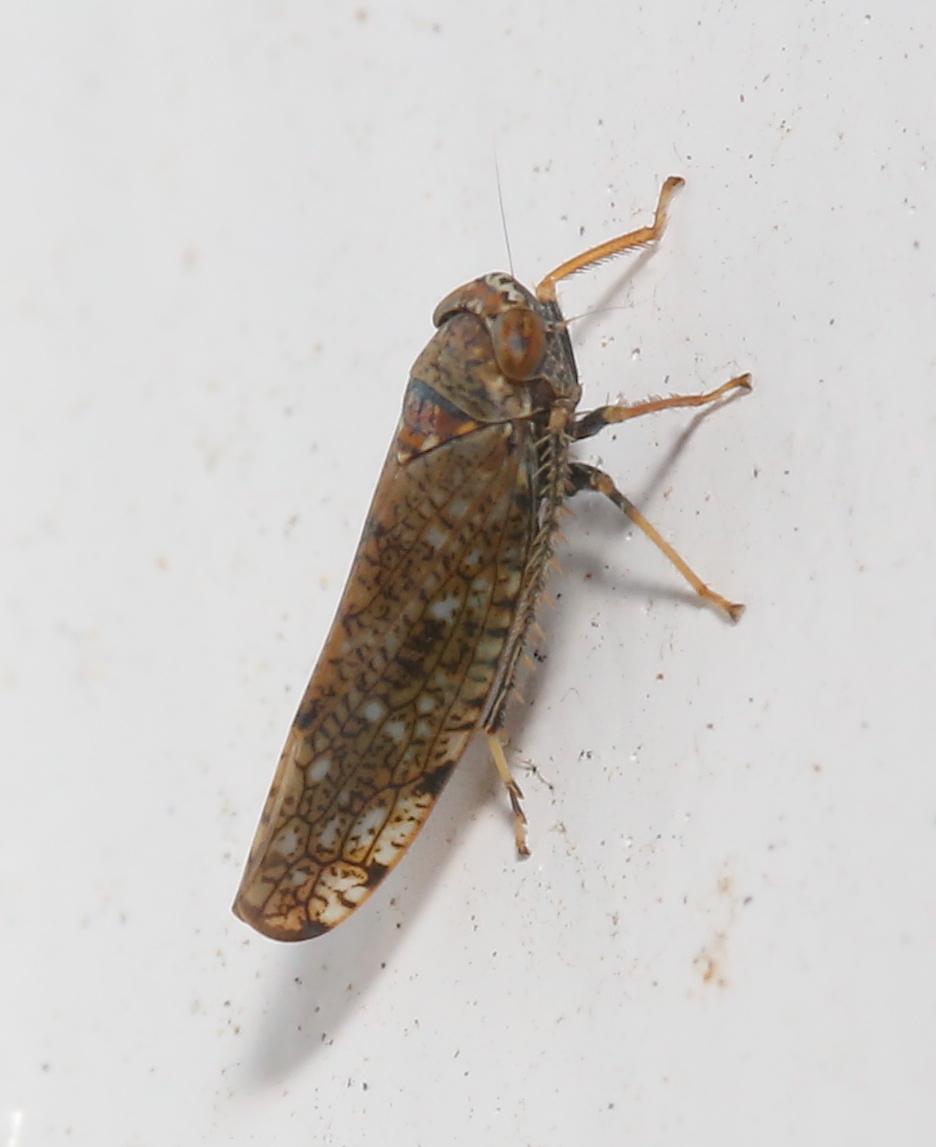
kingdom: Animalia
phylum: Arthropoda
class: Insecta
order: Hemiptera
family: Cicadellidae
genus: Orientus
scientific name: Orientus ishidae
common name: Japanese leafhopper
